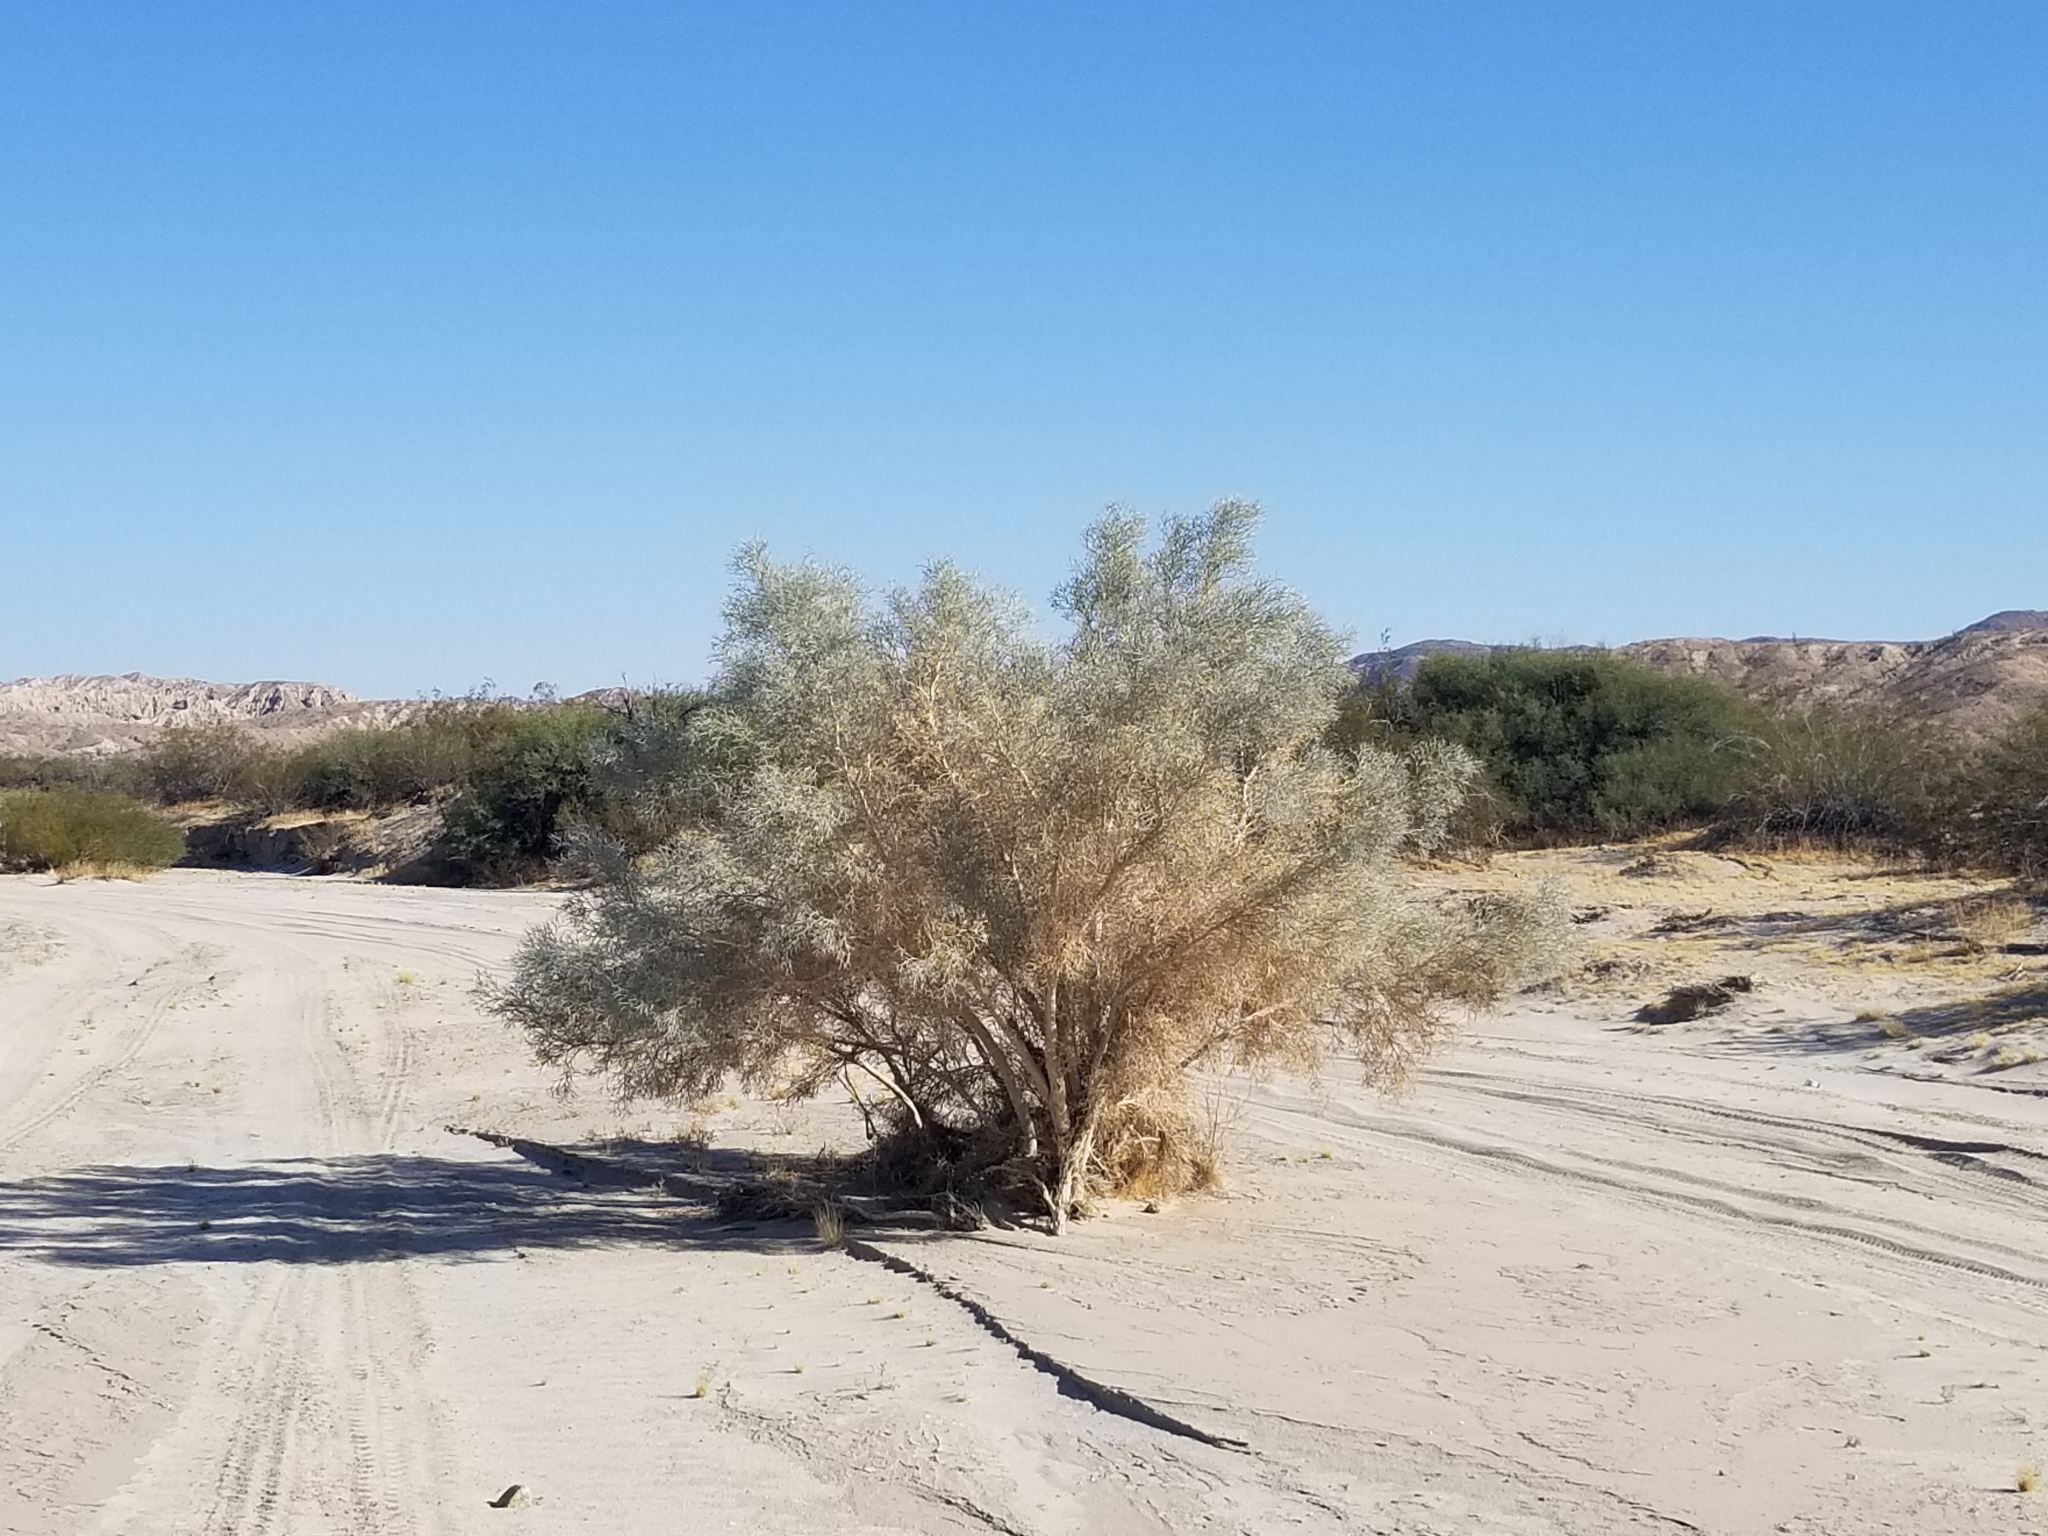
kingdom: Plantae
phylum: Tracheophyta
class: Magnoliopsida
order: Fabales
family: Fabaceae
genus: Psorothamnus
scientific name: Psorothamnus spinosus
